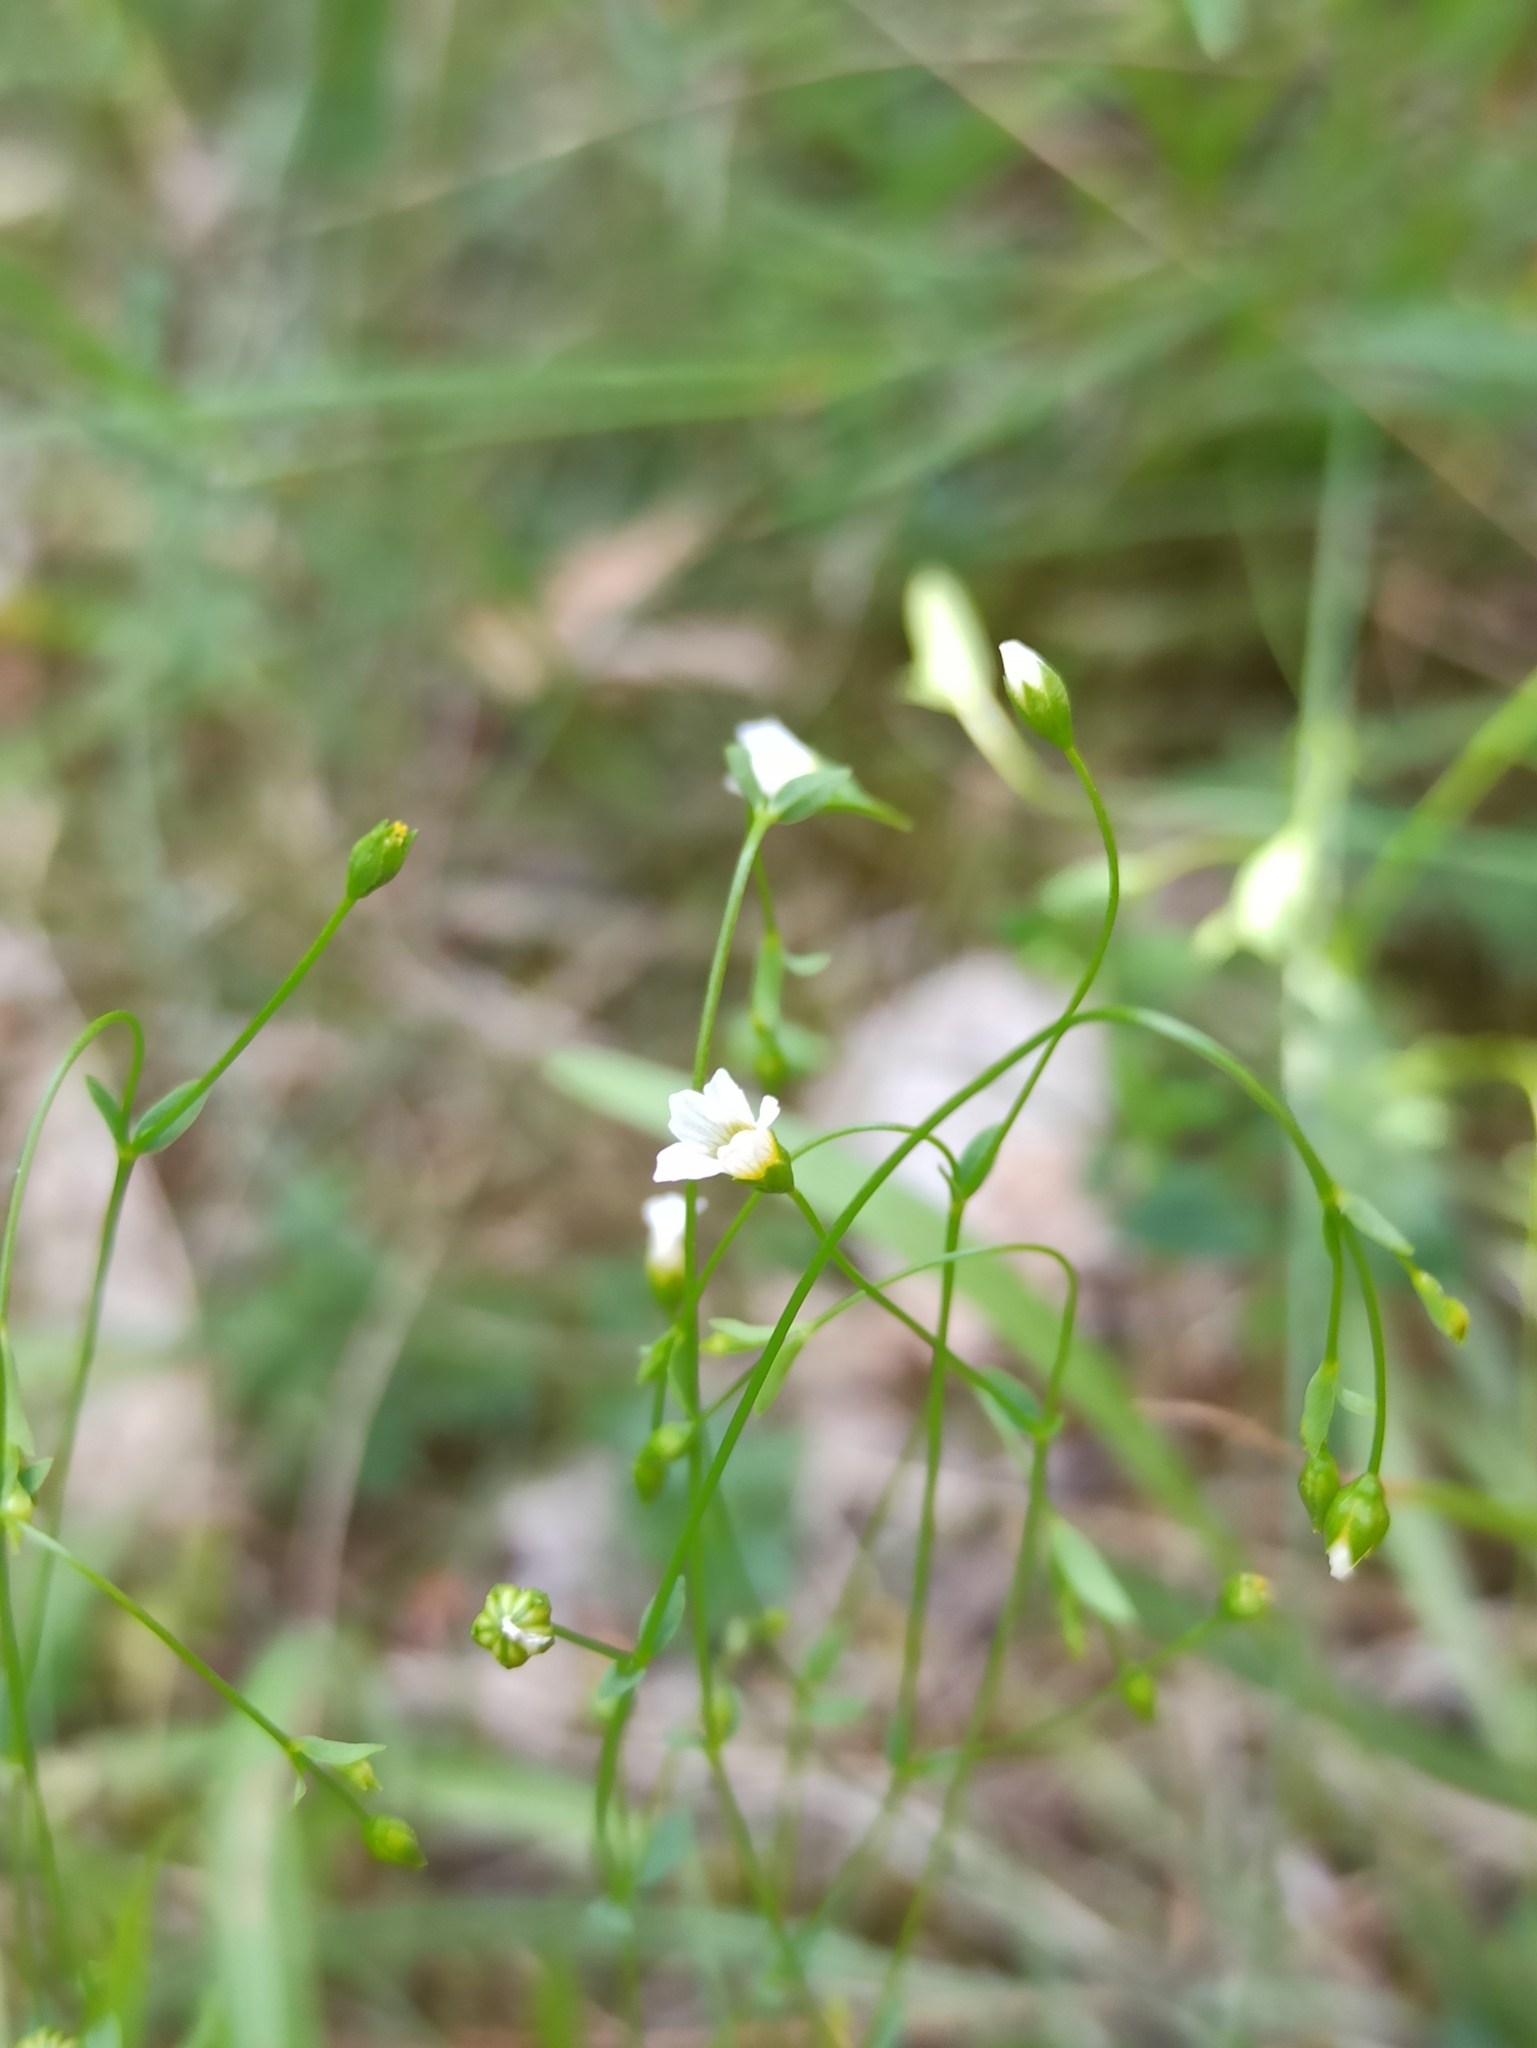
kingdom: Plantae
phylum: Tracheophyta
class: Magnoliopsida
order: Malpighiales
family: Linaceae
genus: Linum
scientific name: Linum catharticum
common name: Fairy flax
